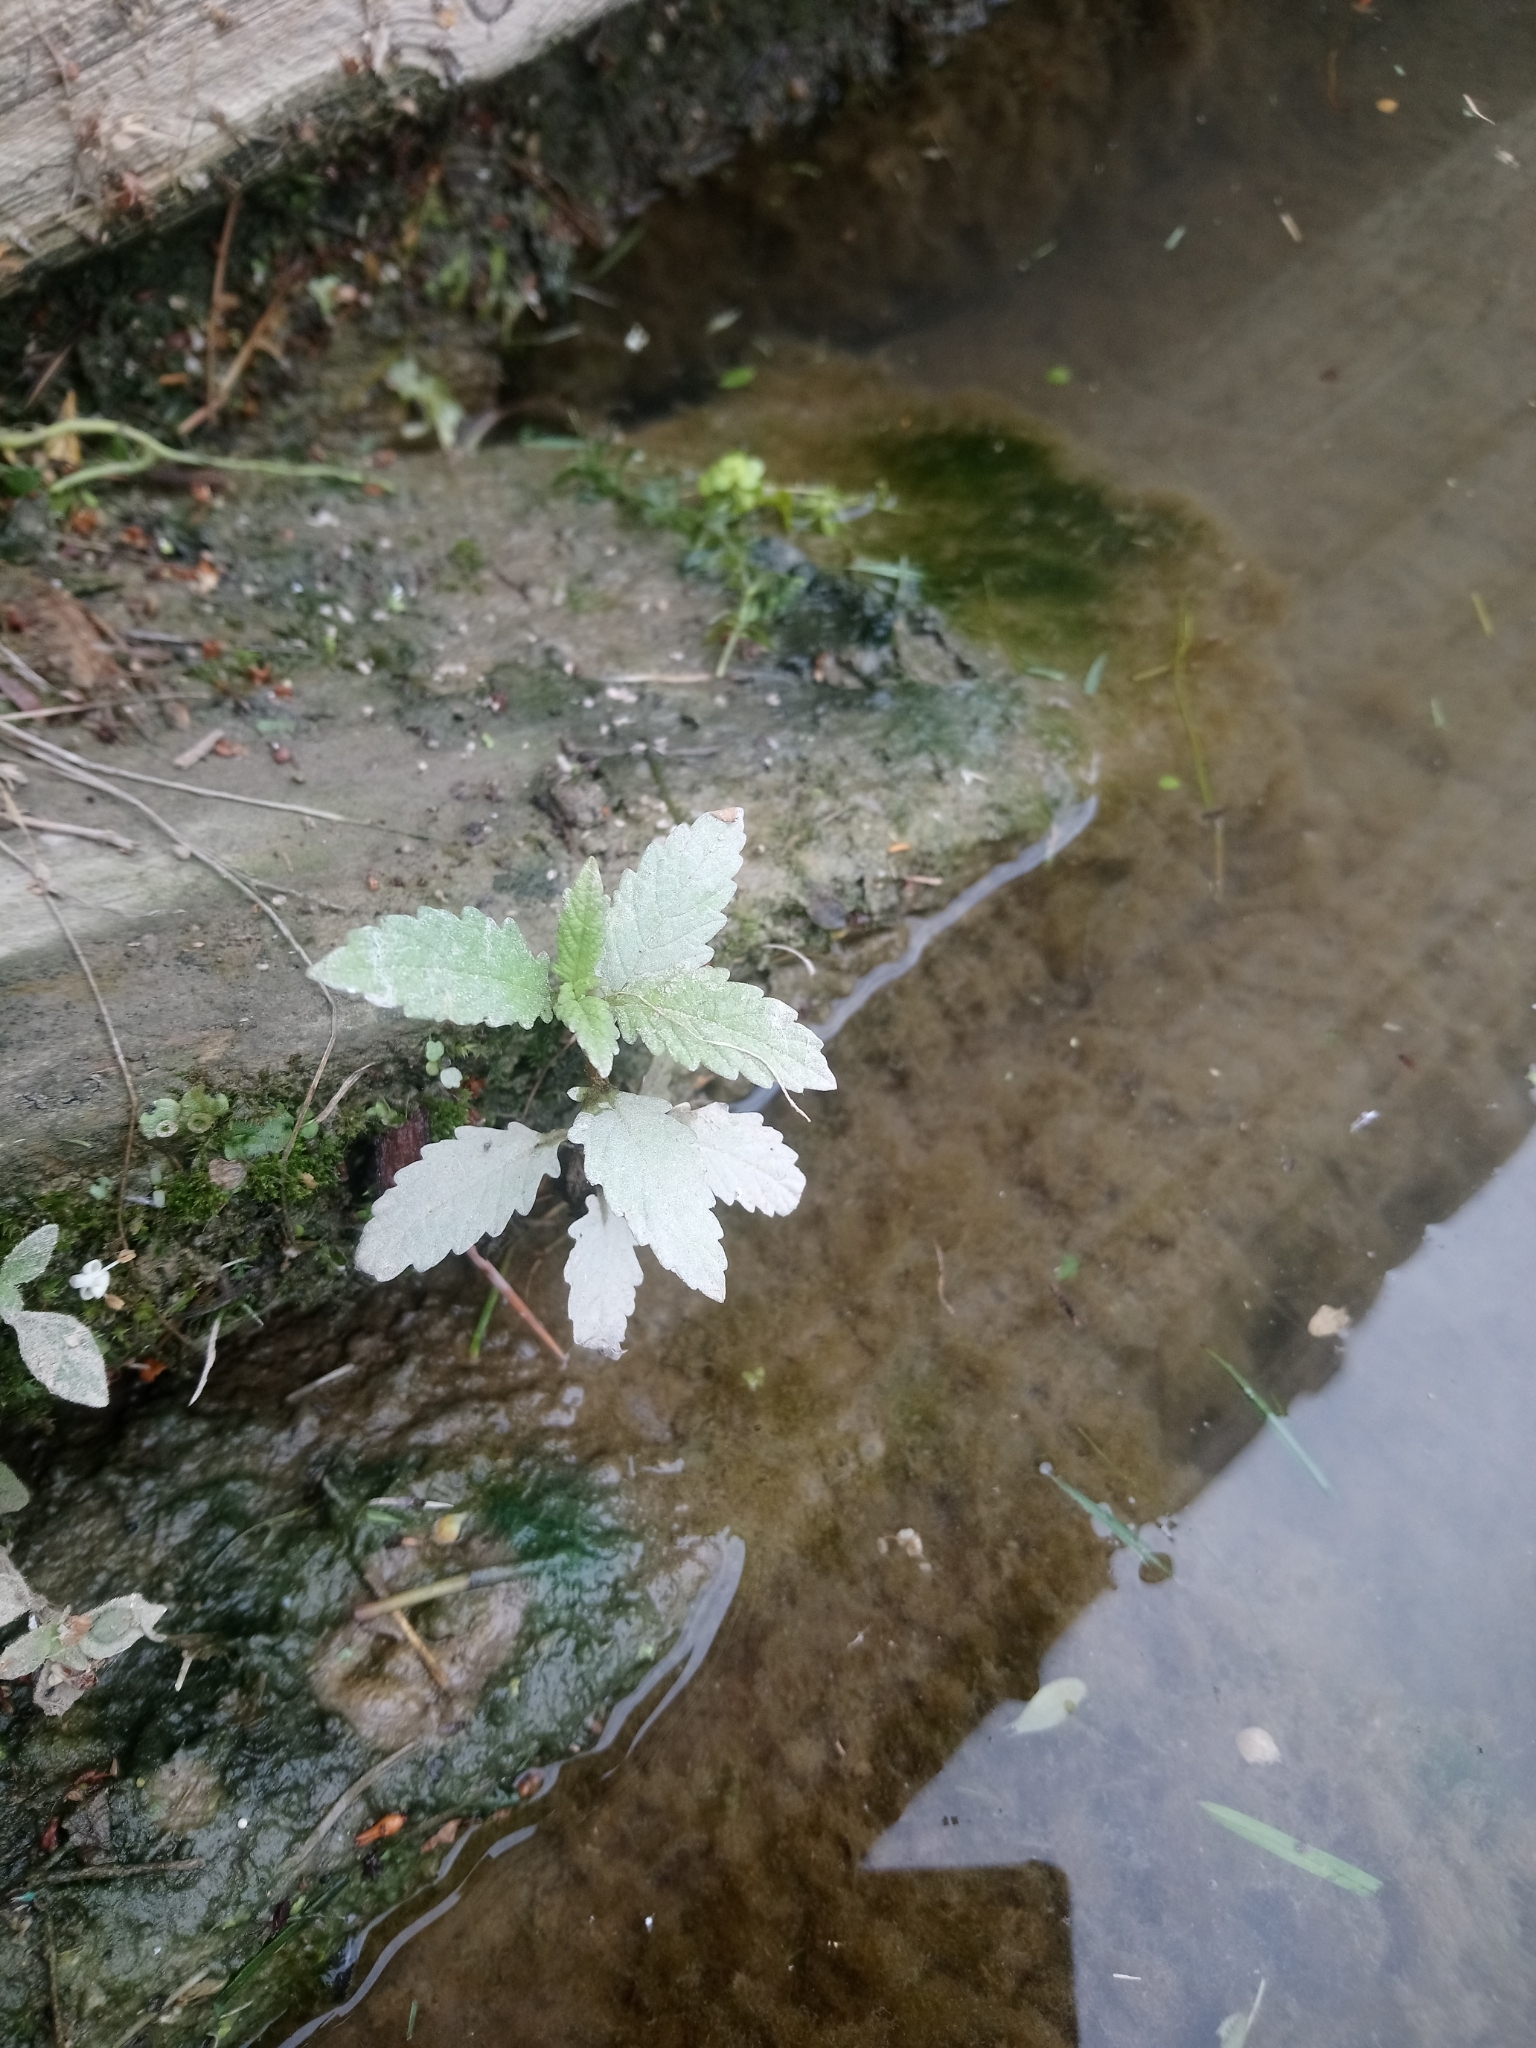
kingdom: Plantae
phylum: Tracheophyta
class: Magnoliopsida
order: Lamiales
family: Lamiaceae
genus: Lycopus
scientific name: Lycopus europaeus
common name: European bugleweed
